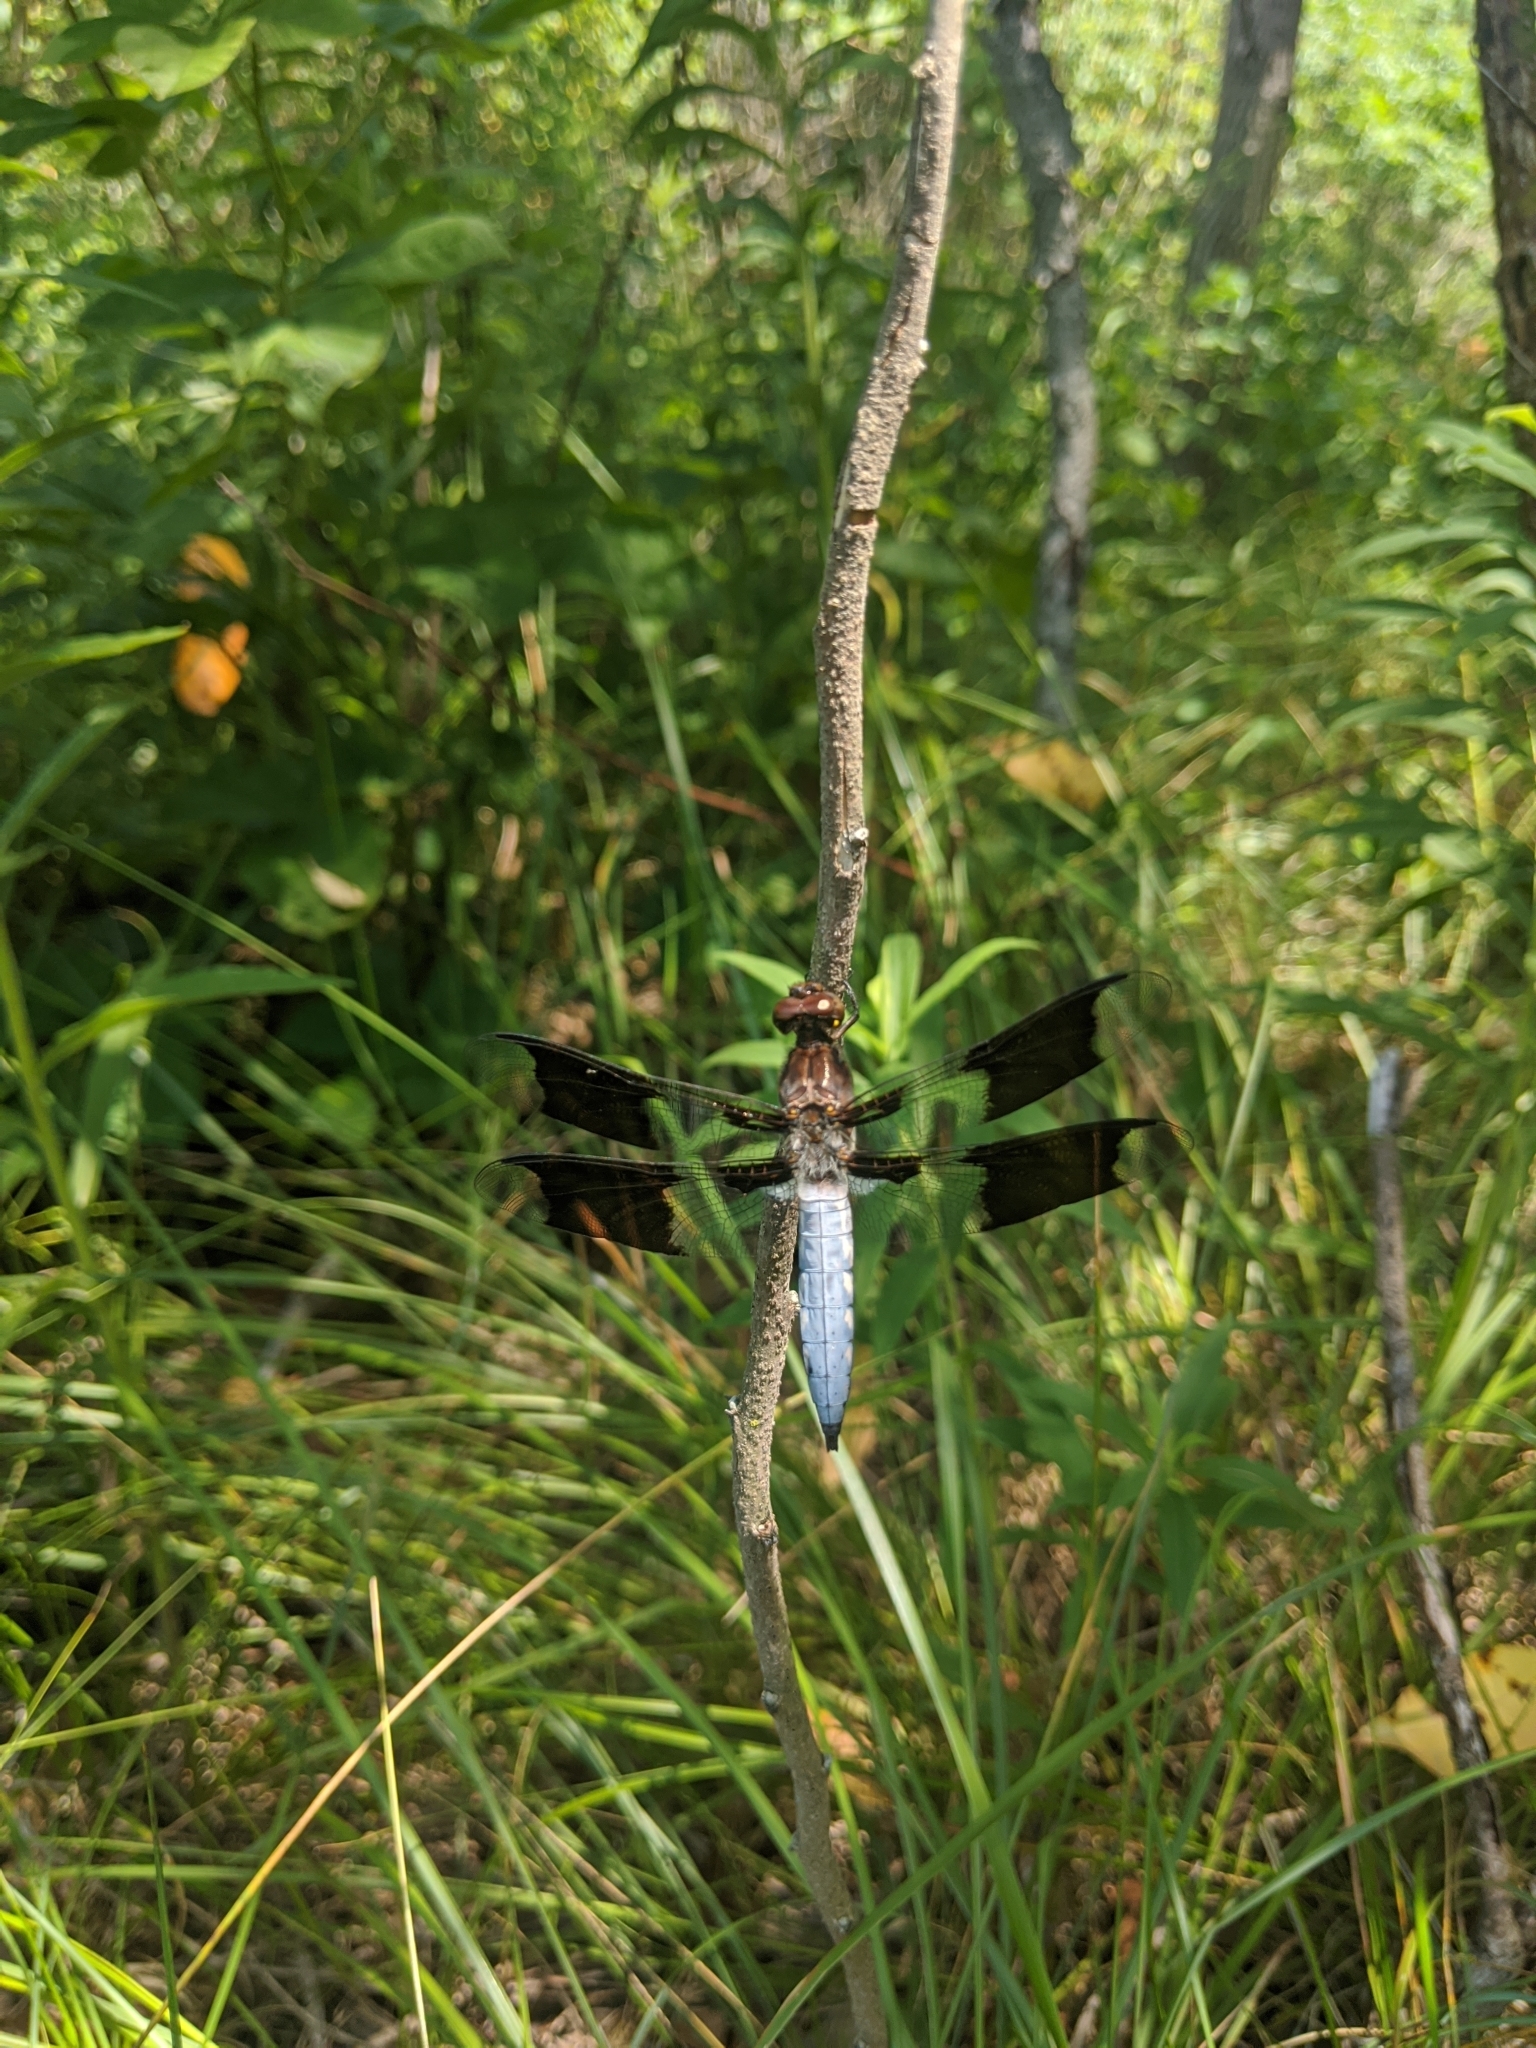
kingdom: Animalia
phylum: Arthropoda
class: Insecta
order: Odonata
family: Libellulidae
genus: Plathemis
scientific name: Plathemis lydia
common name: Common whitetail
